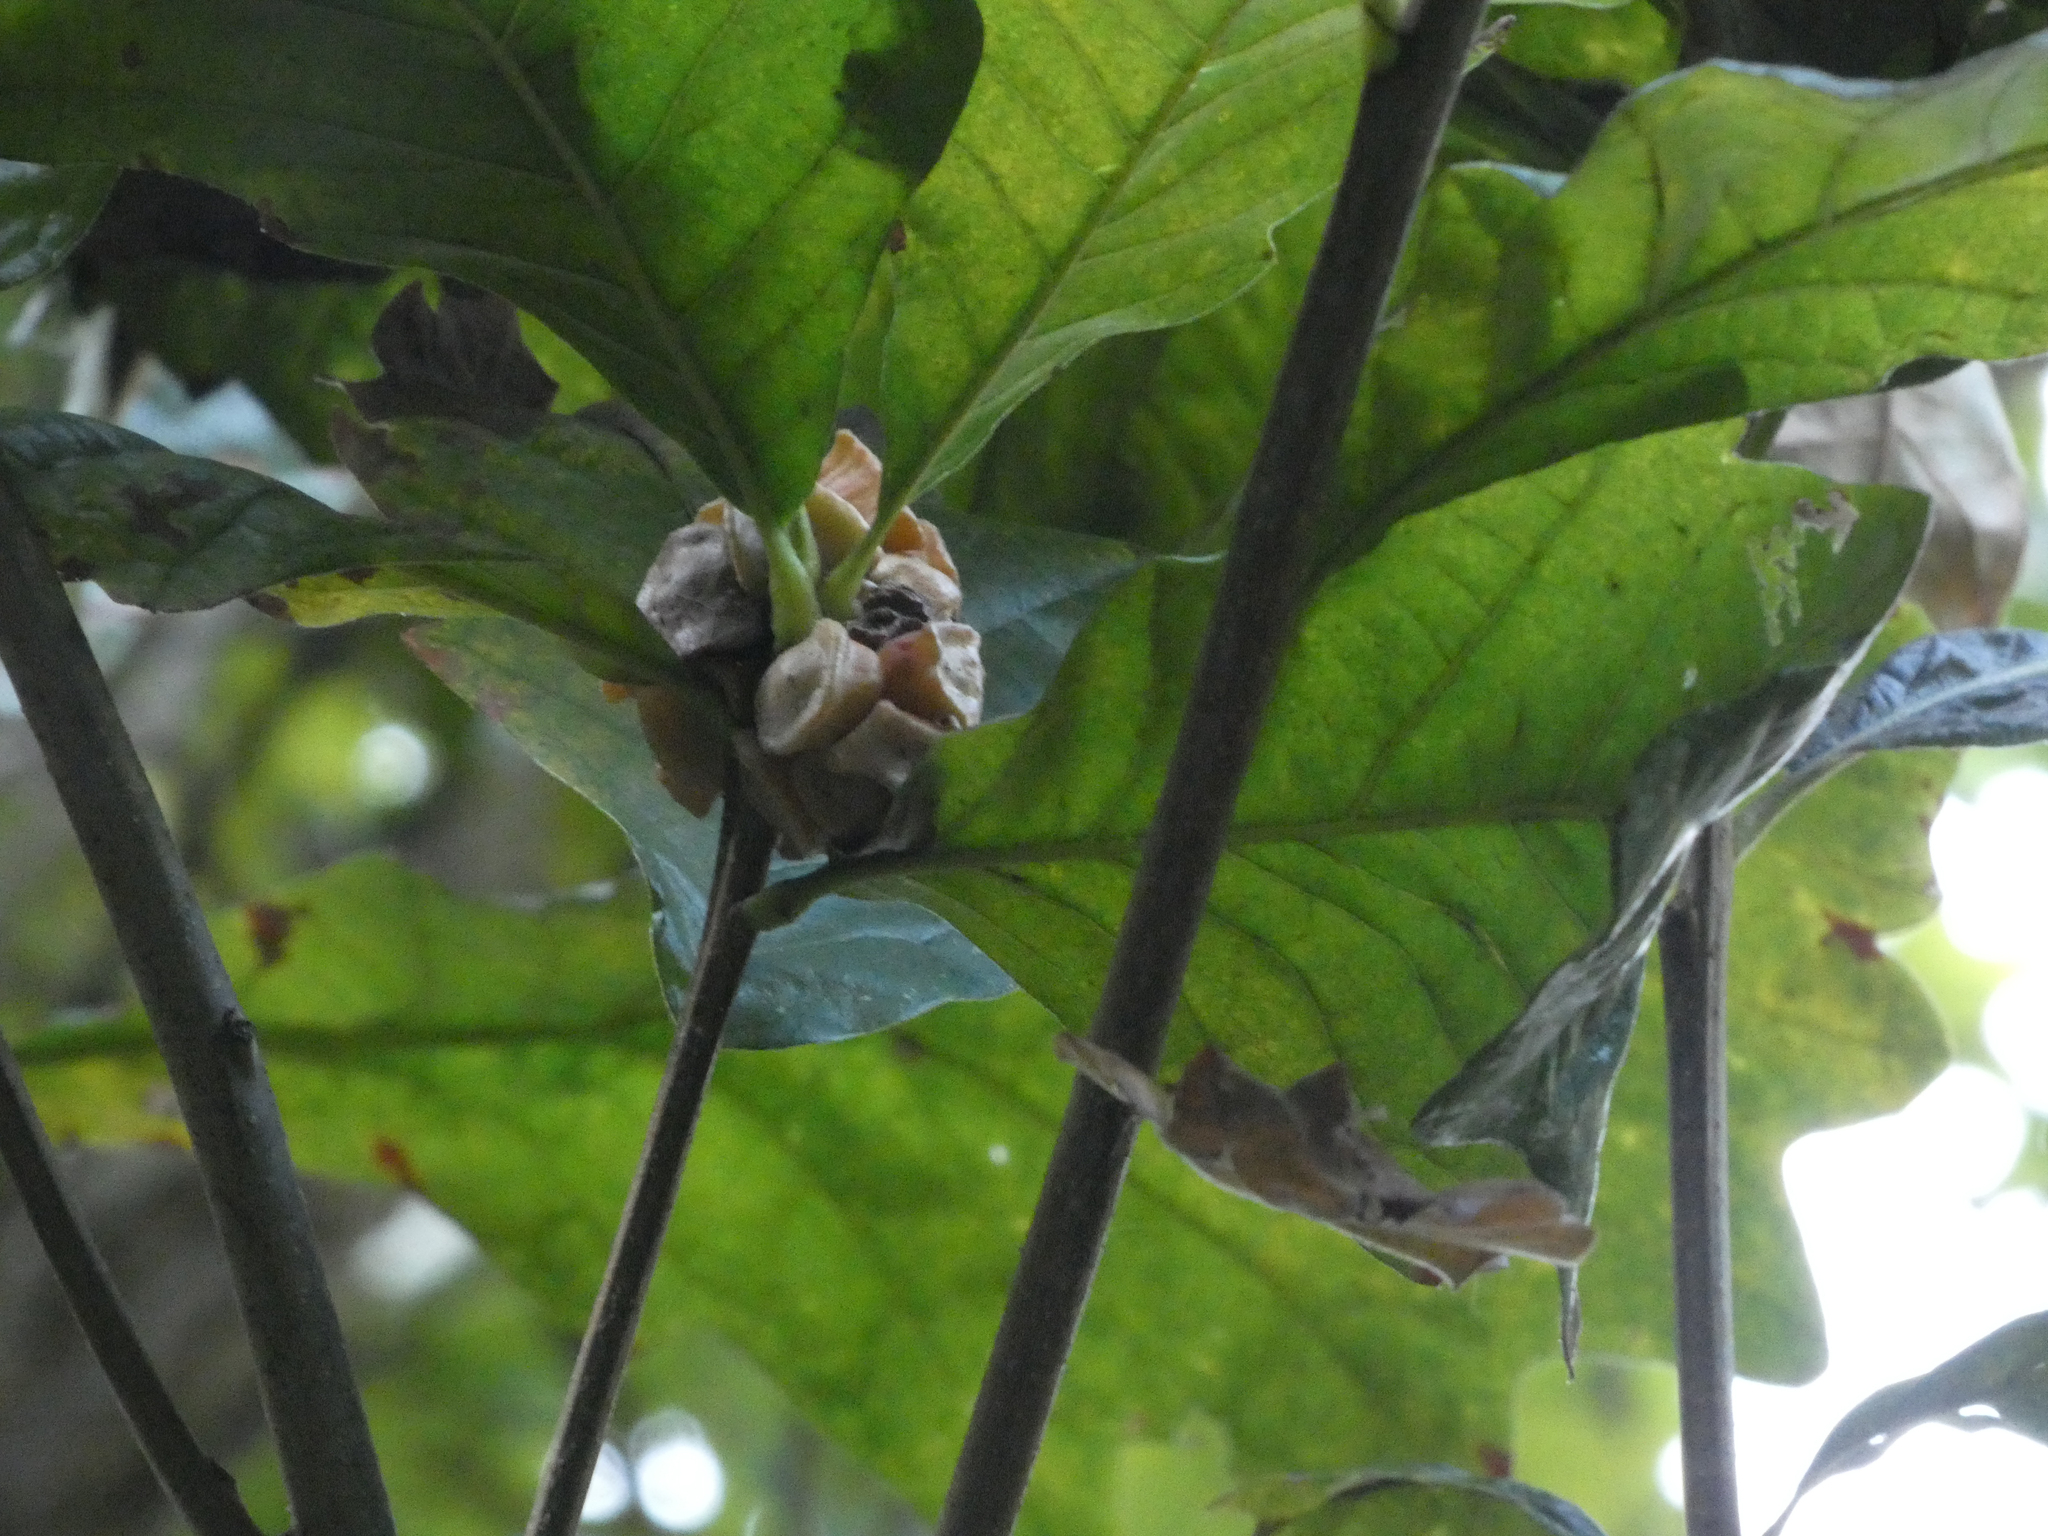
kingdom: Animalia
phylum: Arthropoda
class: Insecta
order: Hymenoptera
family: Cynipidae
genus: Andricus
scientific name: Andricus
